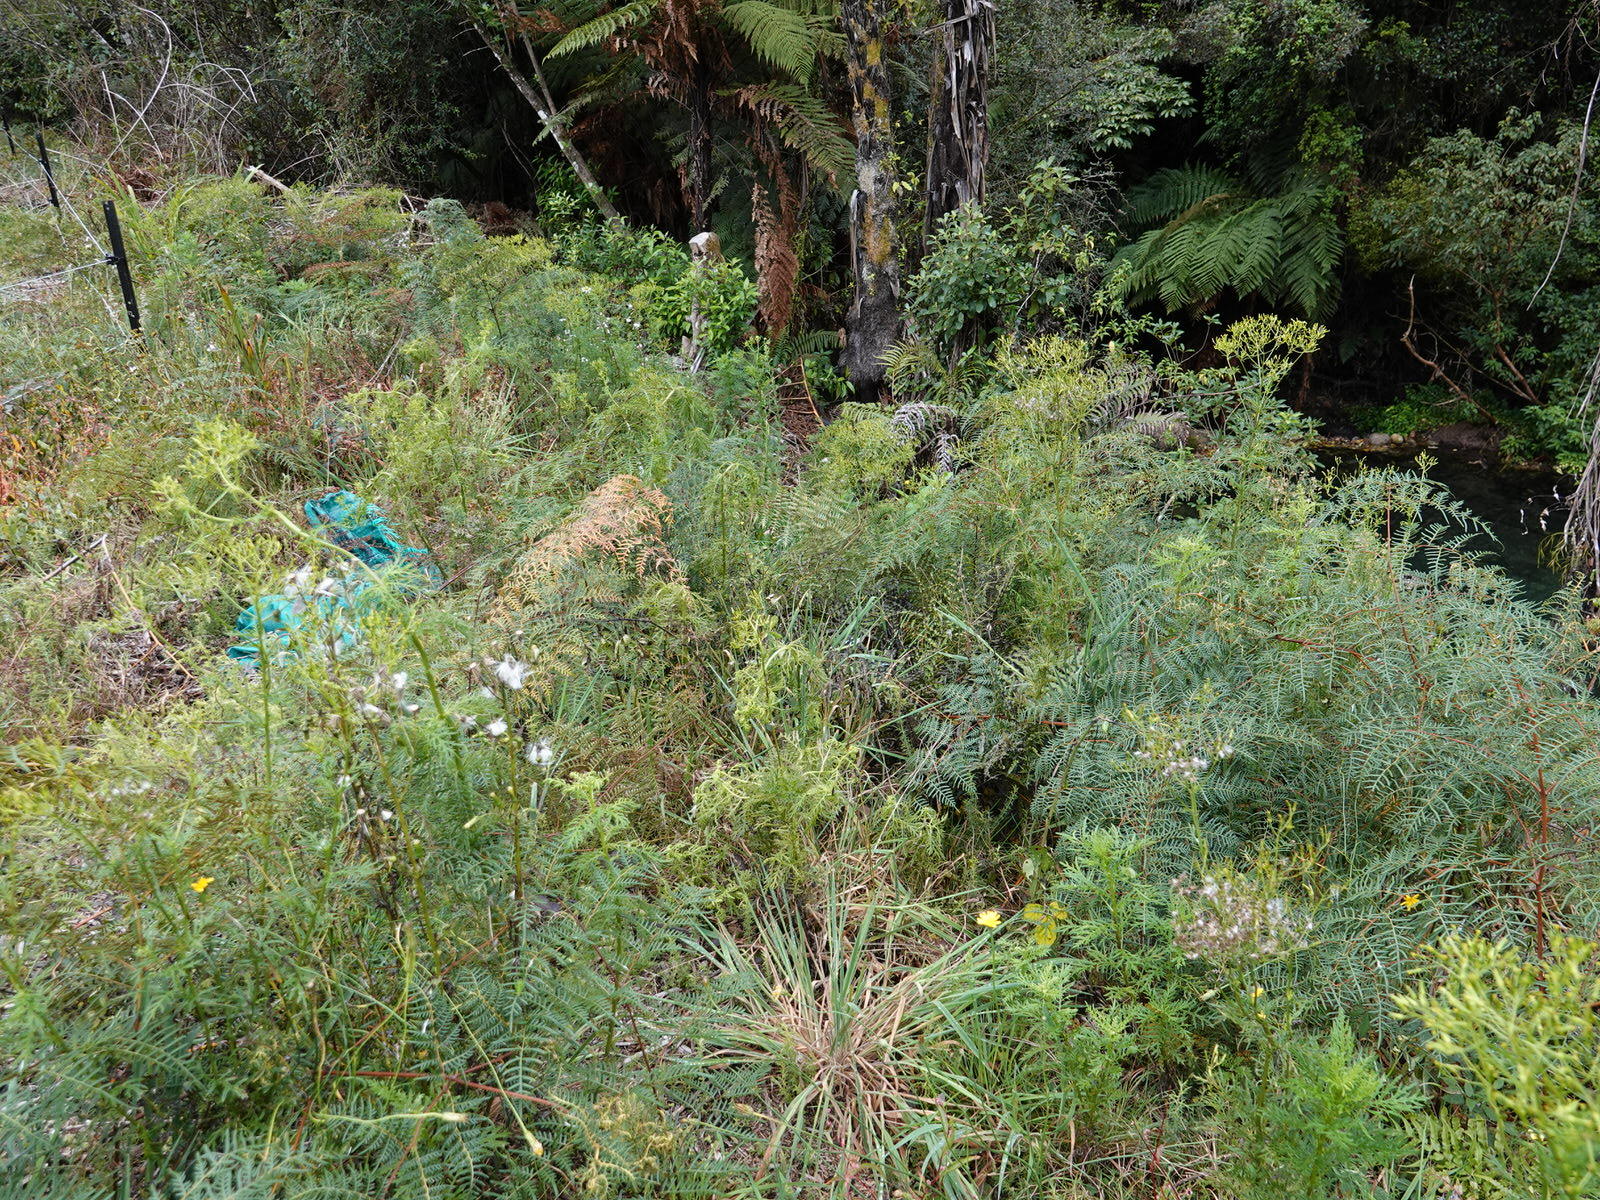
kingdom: Animalia
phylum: Arthropoda
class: Insecta
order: Orthoptera
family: Tettigoniidae
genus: Caedicia
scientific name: Caedicia simplex
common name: Common garden katydid
